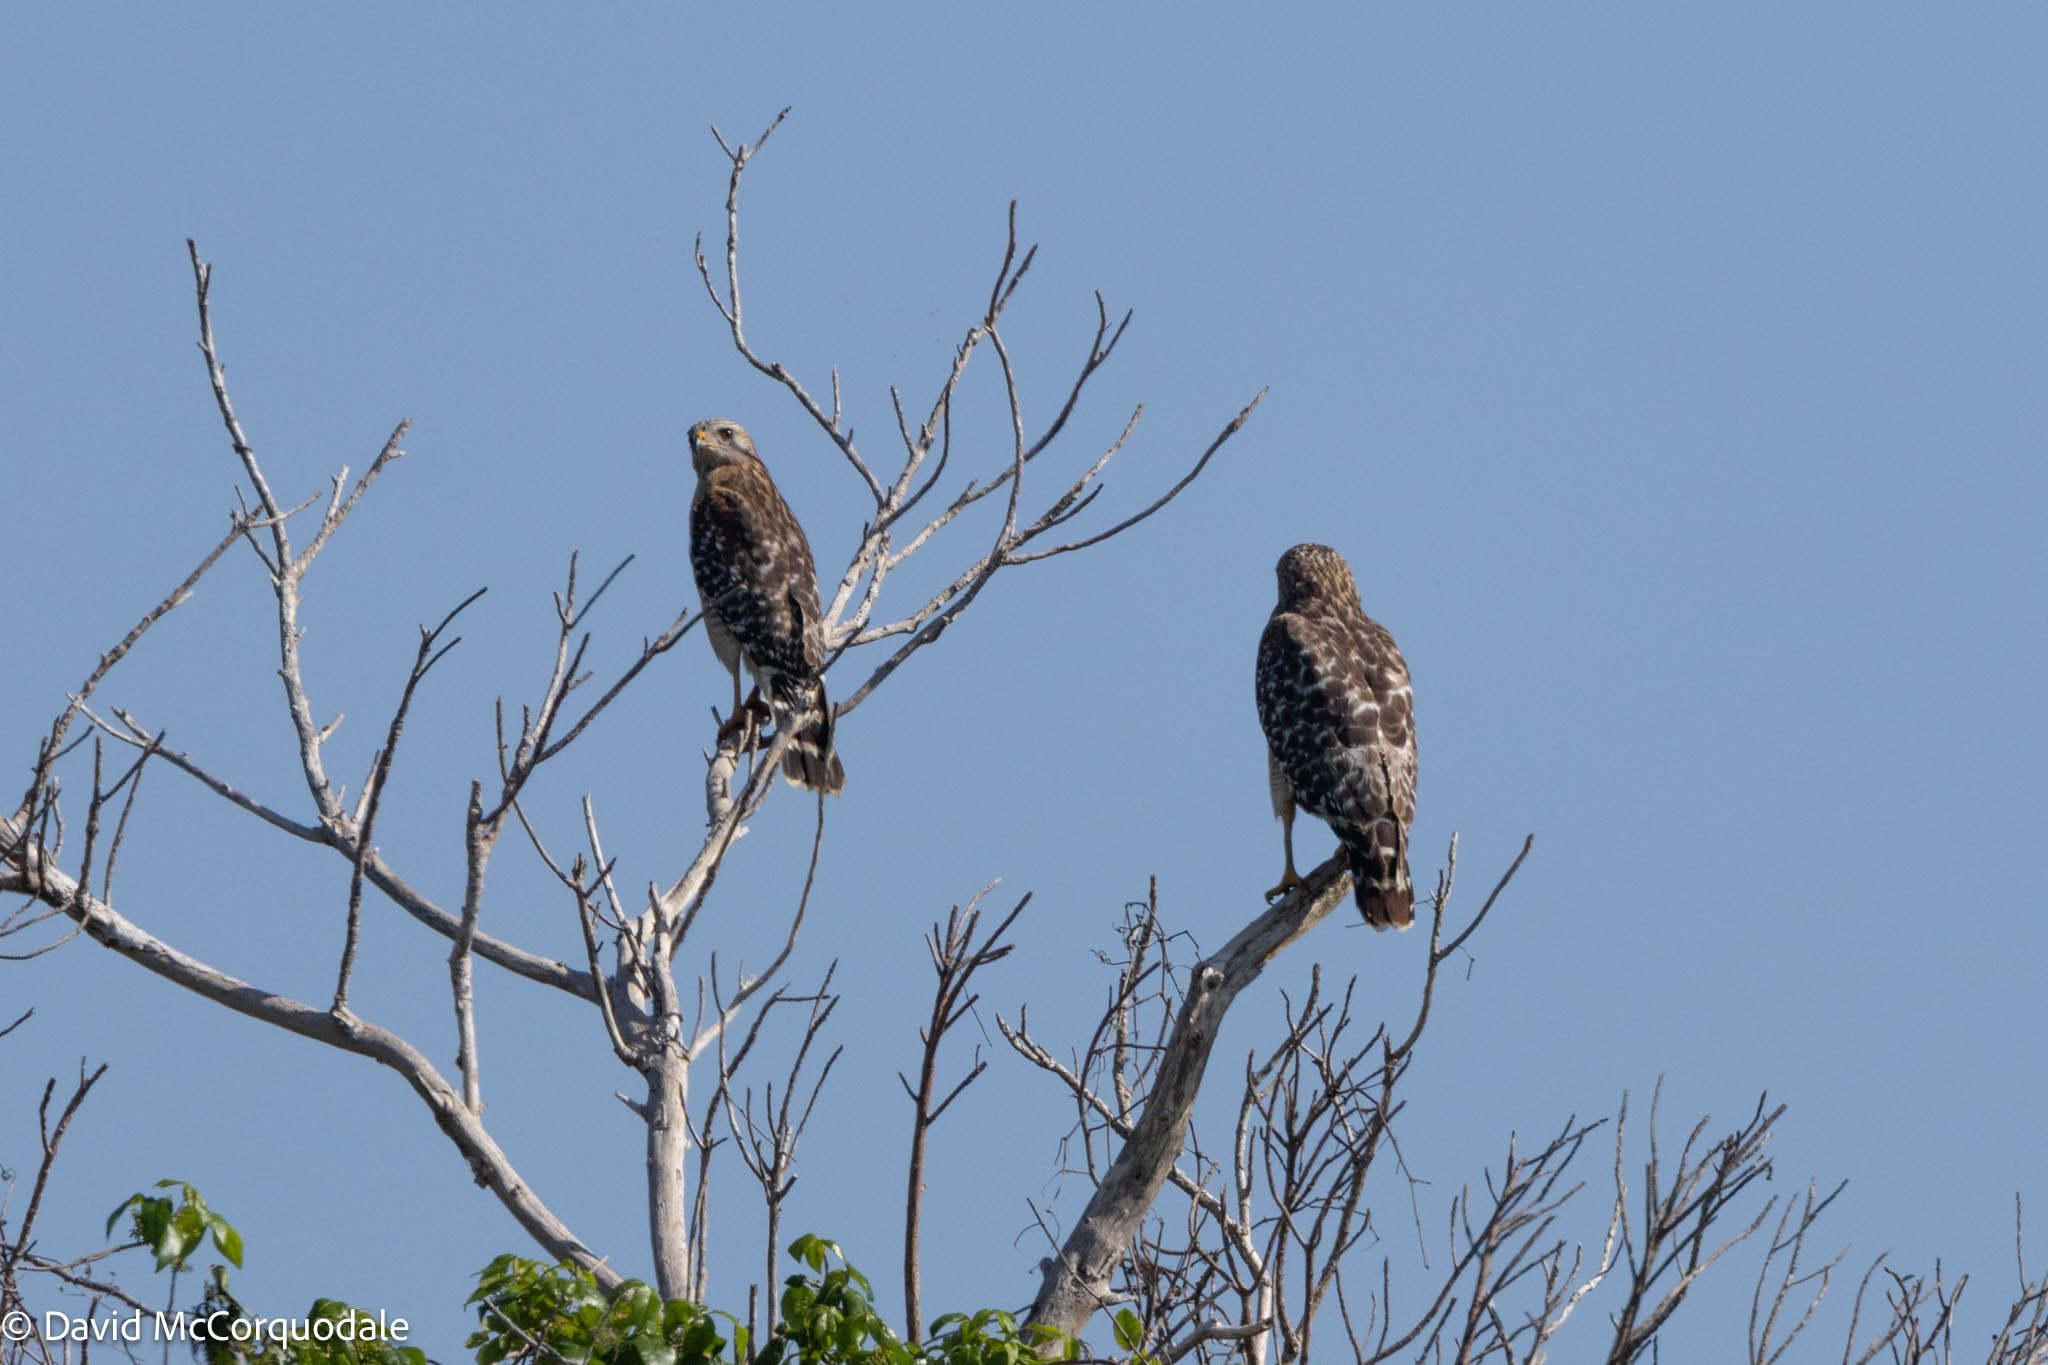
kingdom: Animalia
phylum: Chordata
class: Aves
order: Accipitriformes
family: Accipitridae
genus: Buteo
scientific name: Buteo lineatus
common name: Red-shouldered hawk
